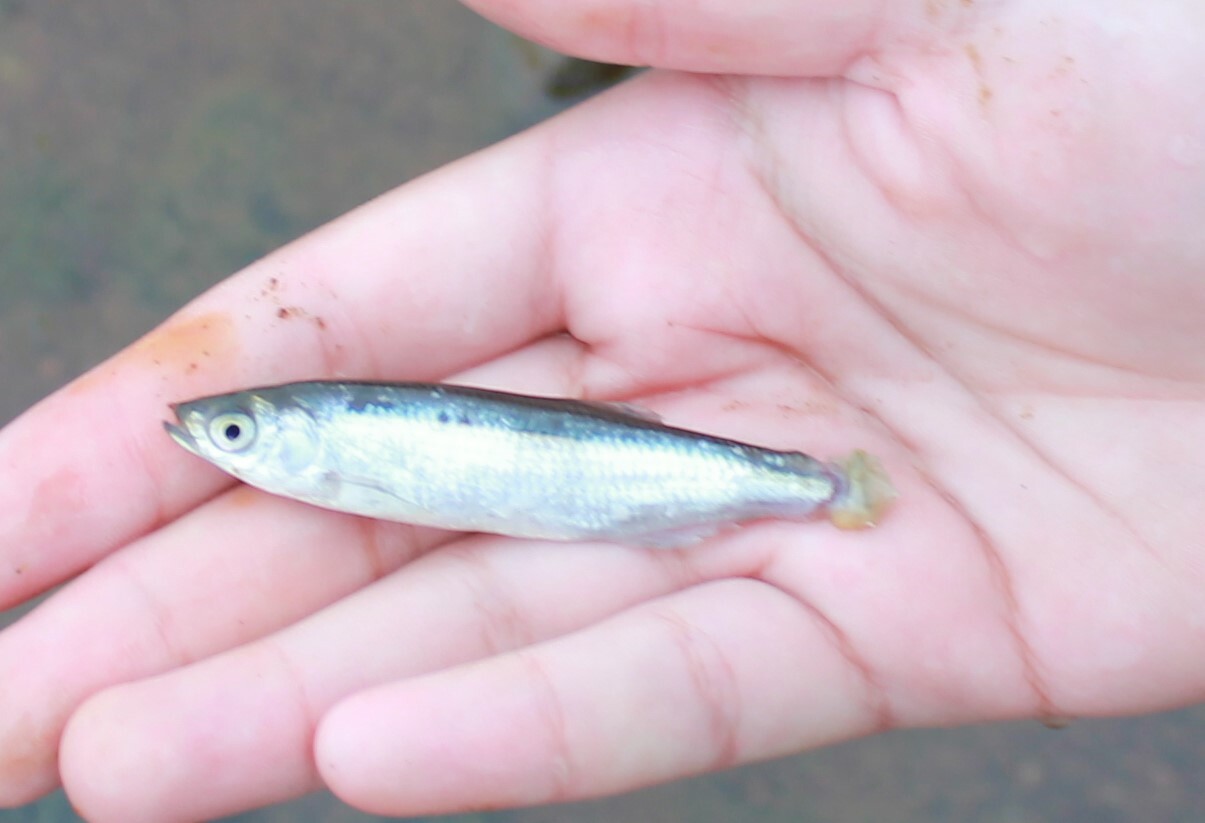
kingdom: Animalia
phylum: Chordata
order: Cypriniformes
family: Cyprinidae
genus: Alburnus
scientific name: Alburnus alburnus
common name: Bleak
